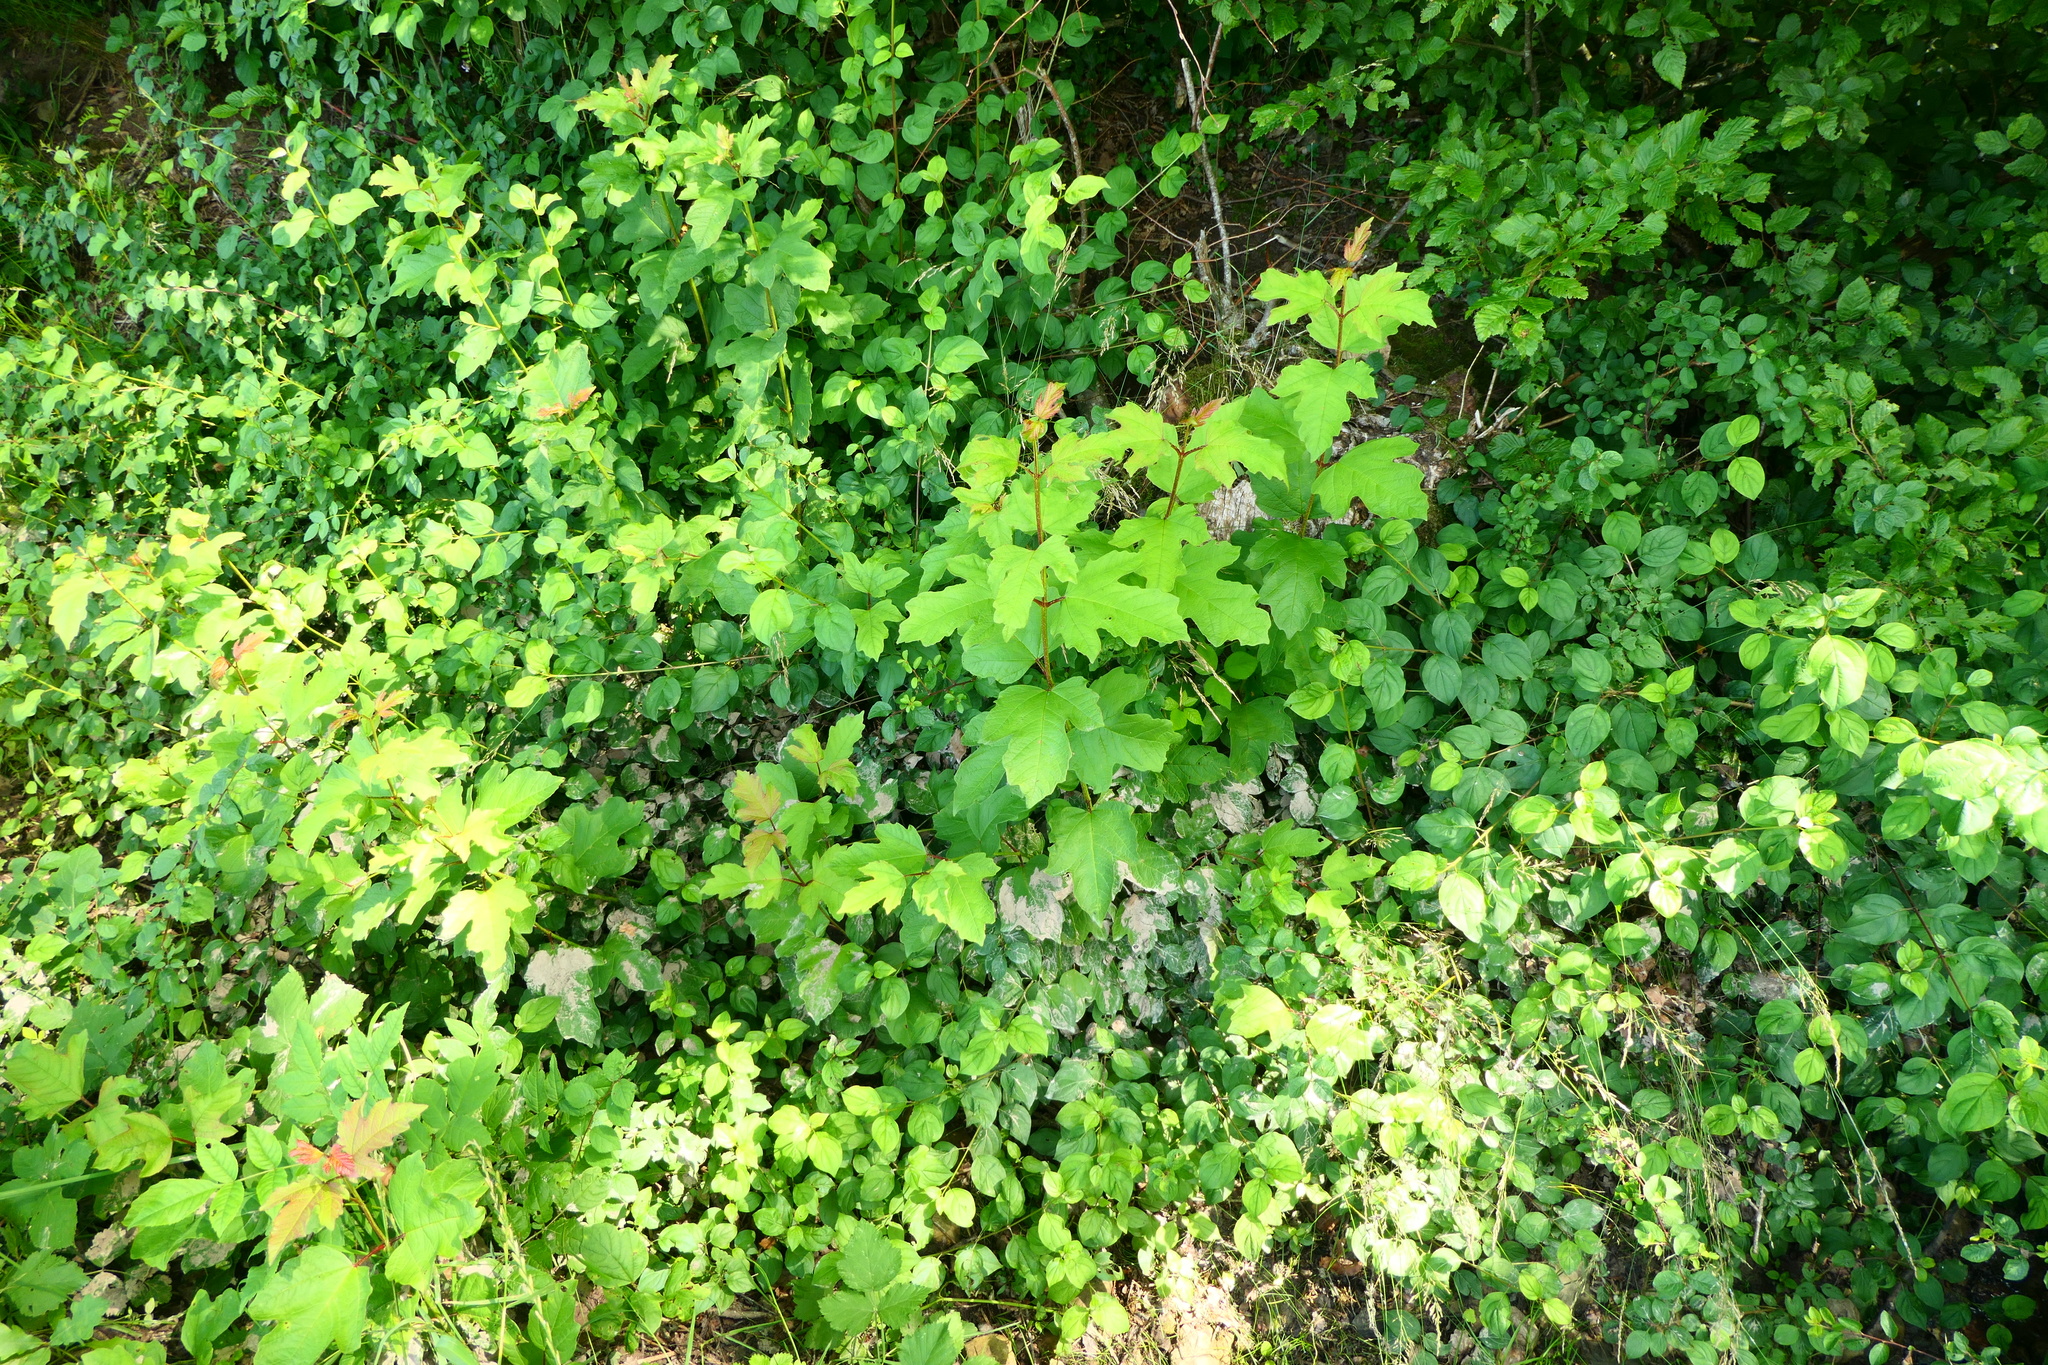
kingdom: Plantae
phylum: Tracheophyta
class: Magnoliopsida
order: Dipsacales
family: Viburnaceae
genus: Viburnum
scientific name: Viburnum opulus
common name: Guelder-rose
